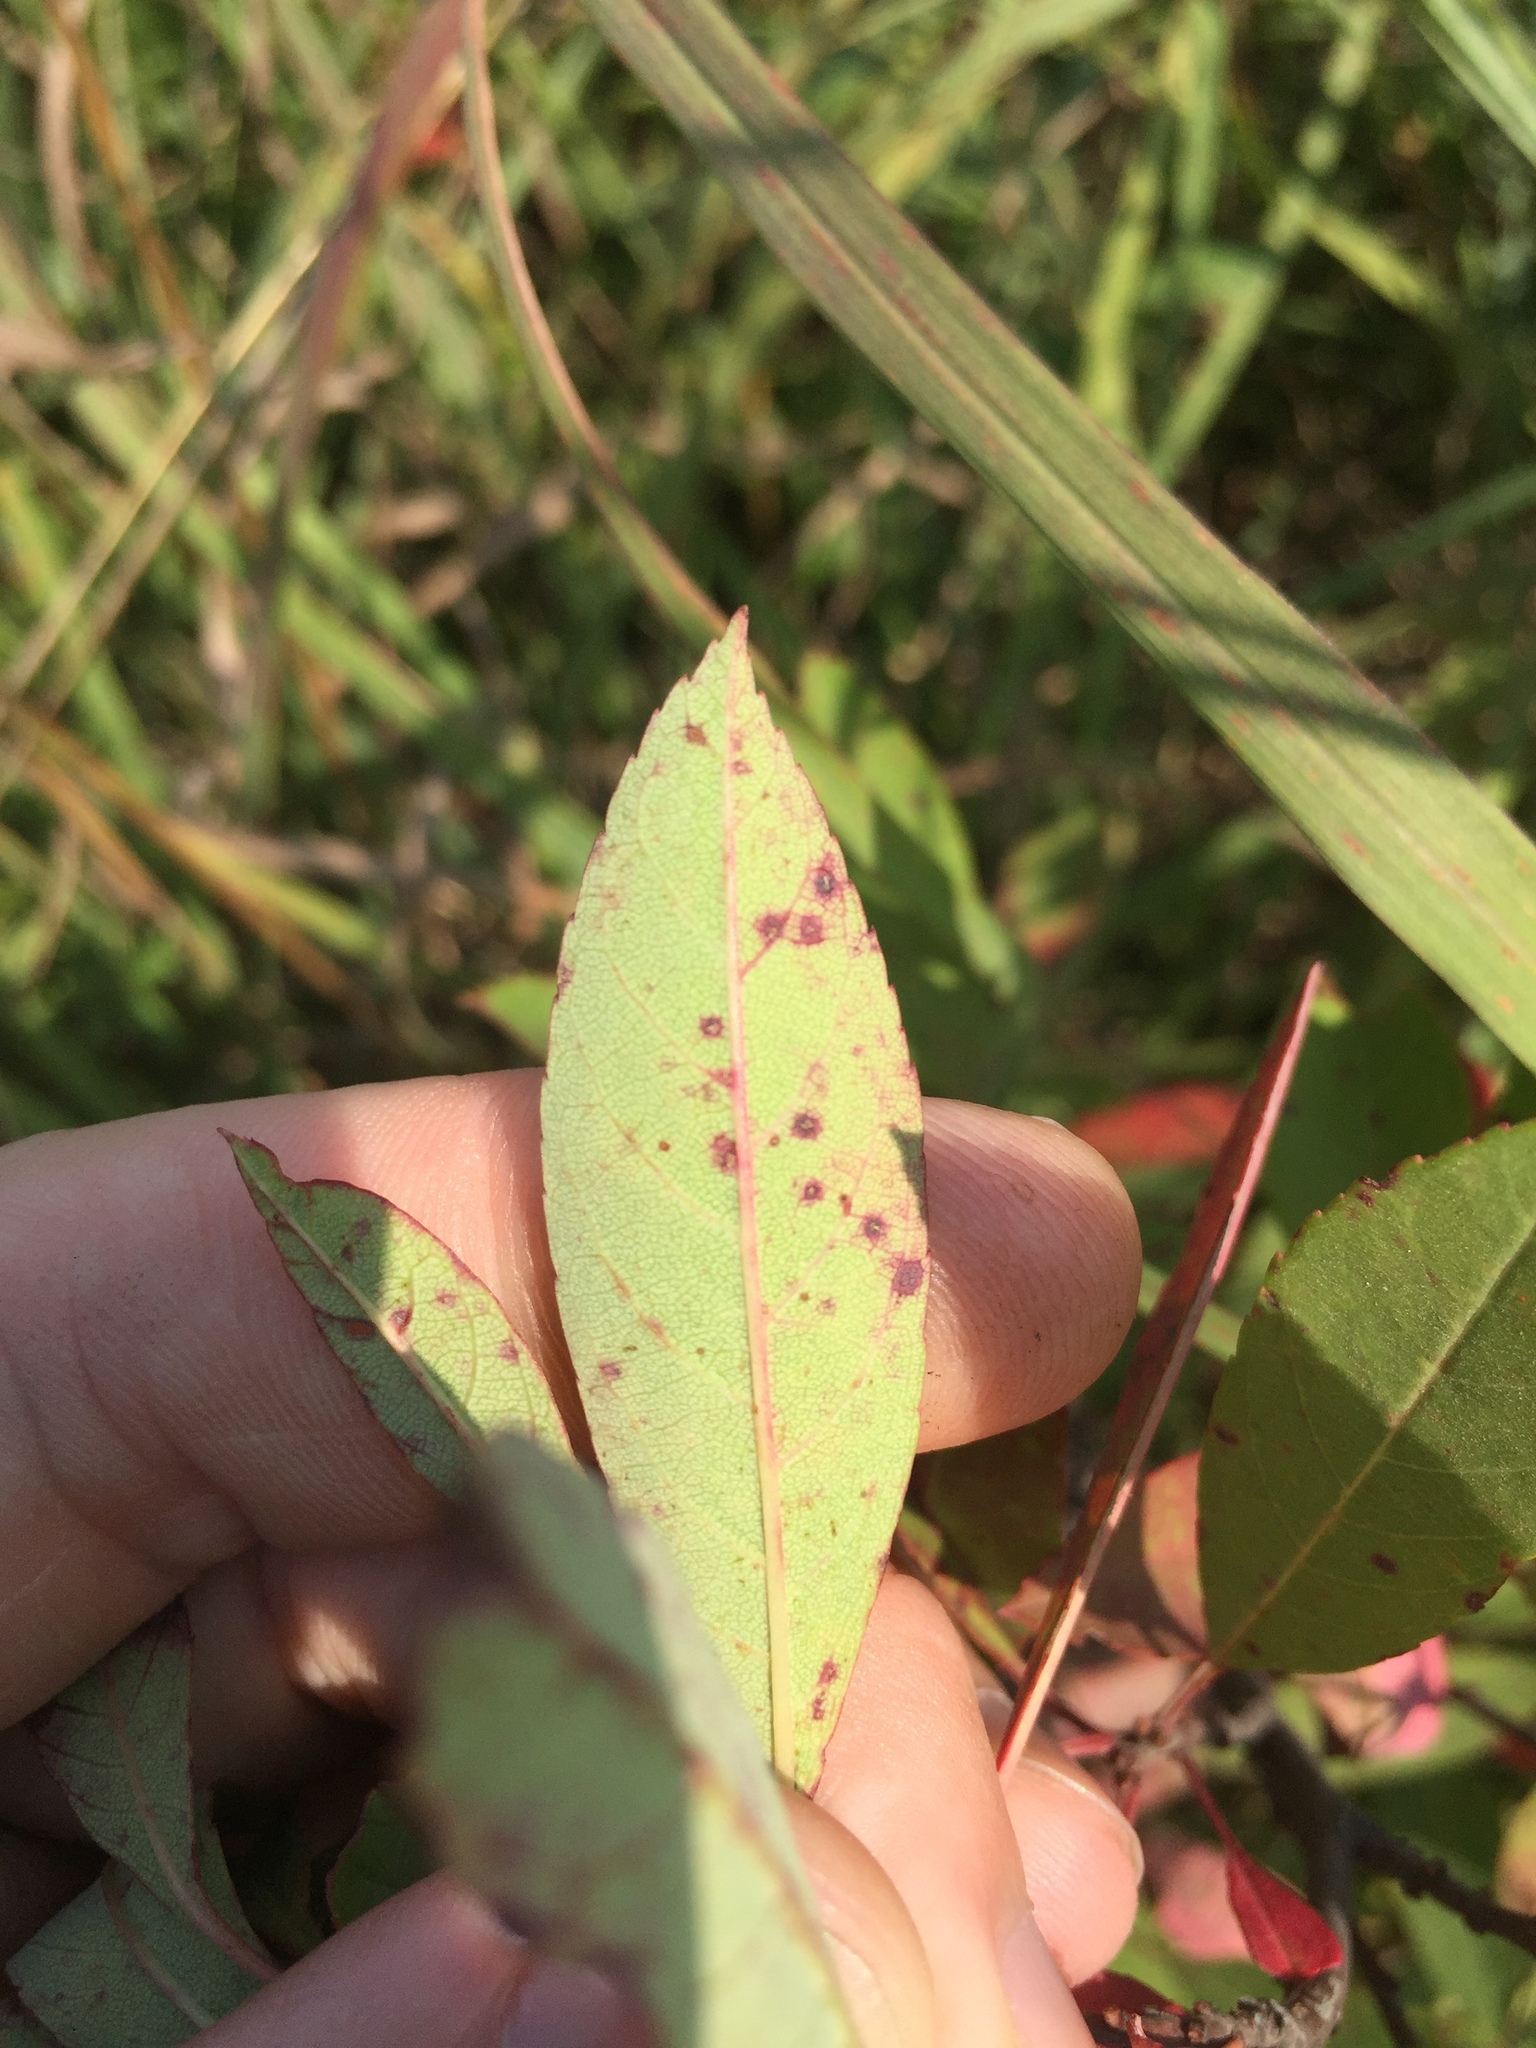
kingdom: Plantae
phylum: Tracheophyta
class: Magnoliopsida
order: Rosales
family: Rosaceae
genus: Prunus
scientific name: Prunus pumila
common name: Dwarf cherry
